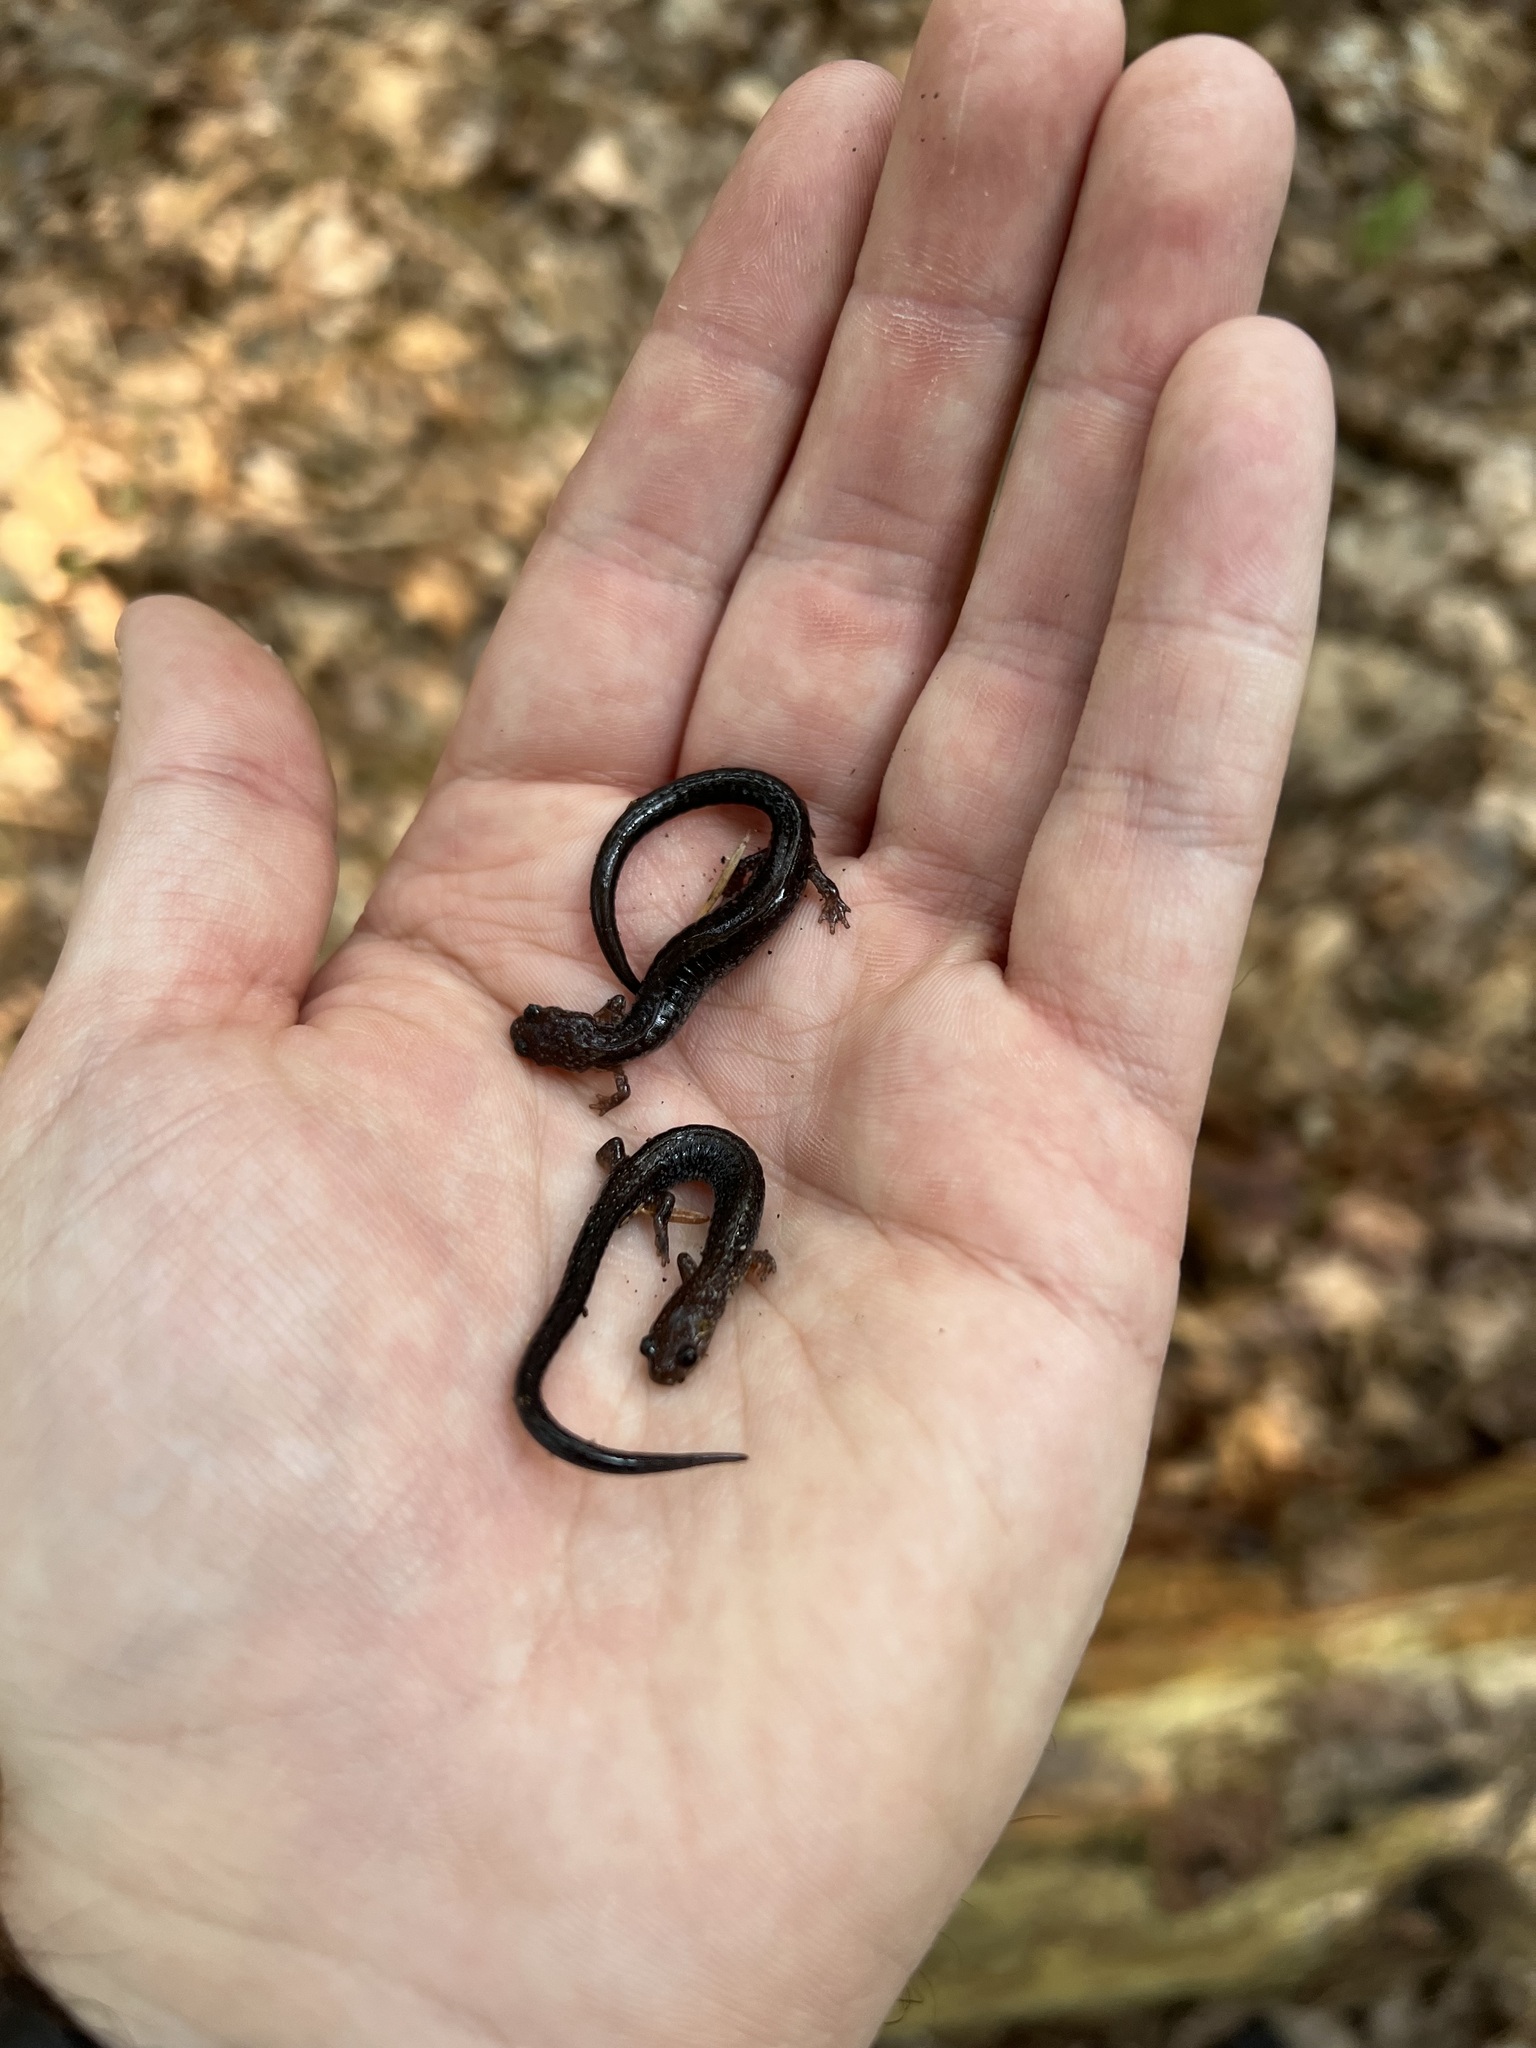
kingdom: Animalia
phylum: Chordata
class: Amphibia
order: Caudata
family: Plethodontidae
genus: Plethodon
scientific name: Plethodon cinereus
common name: Redback salamander
